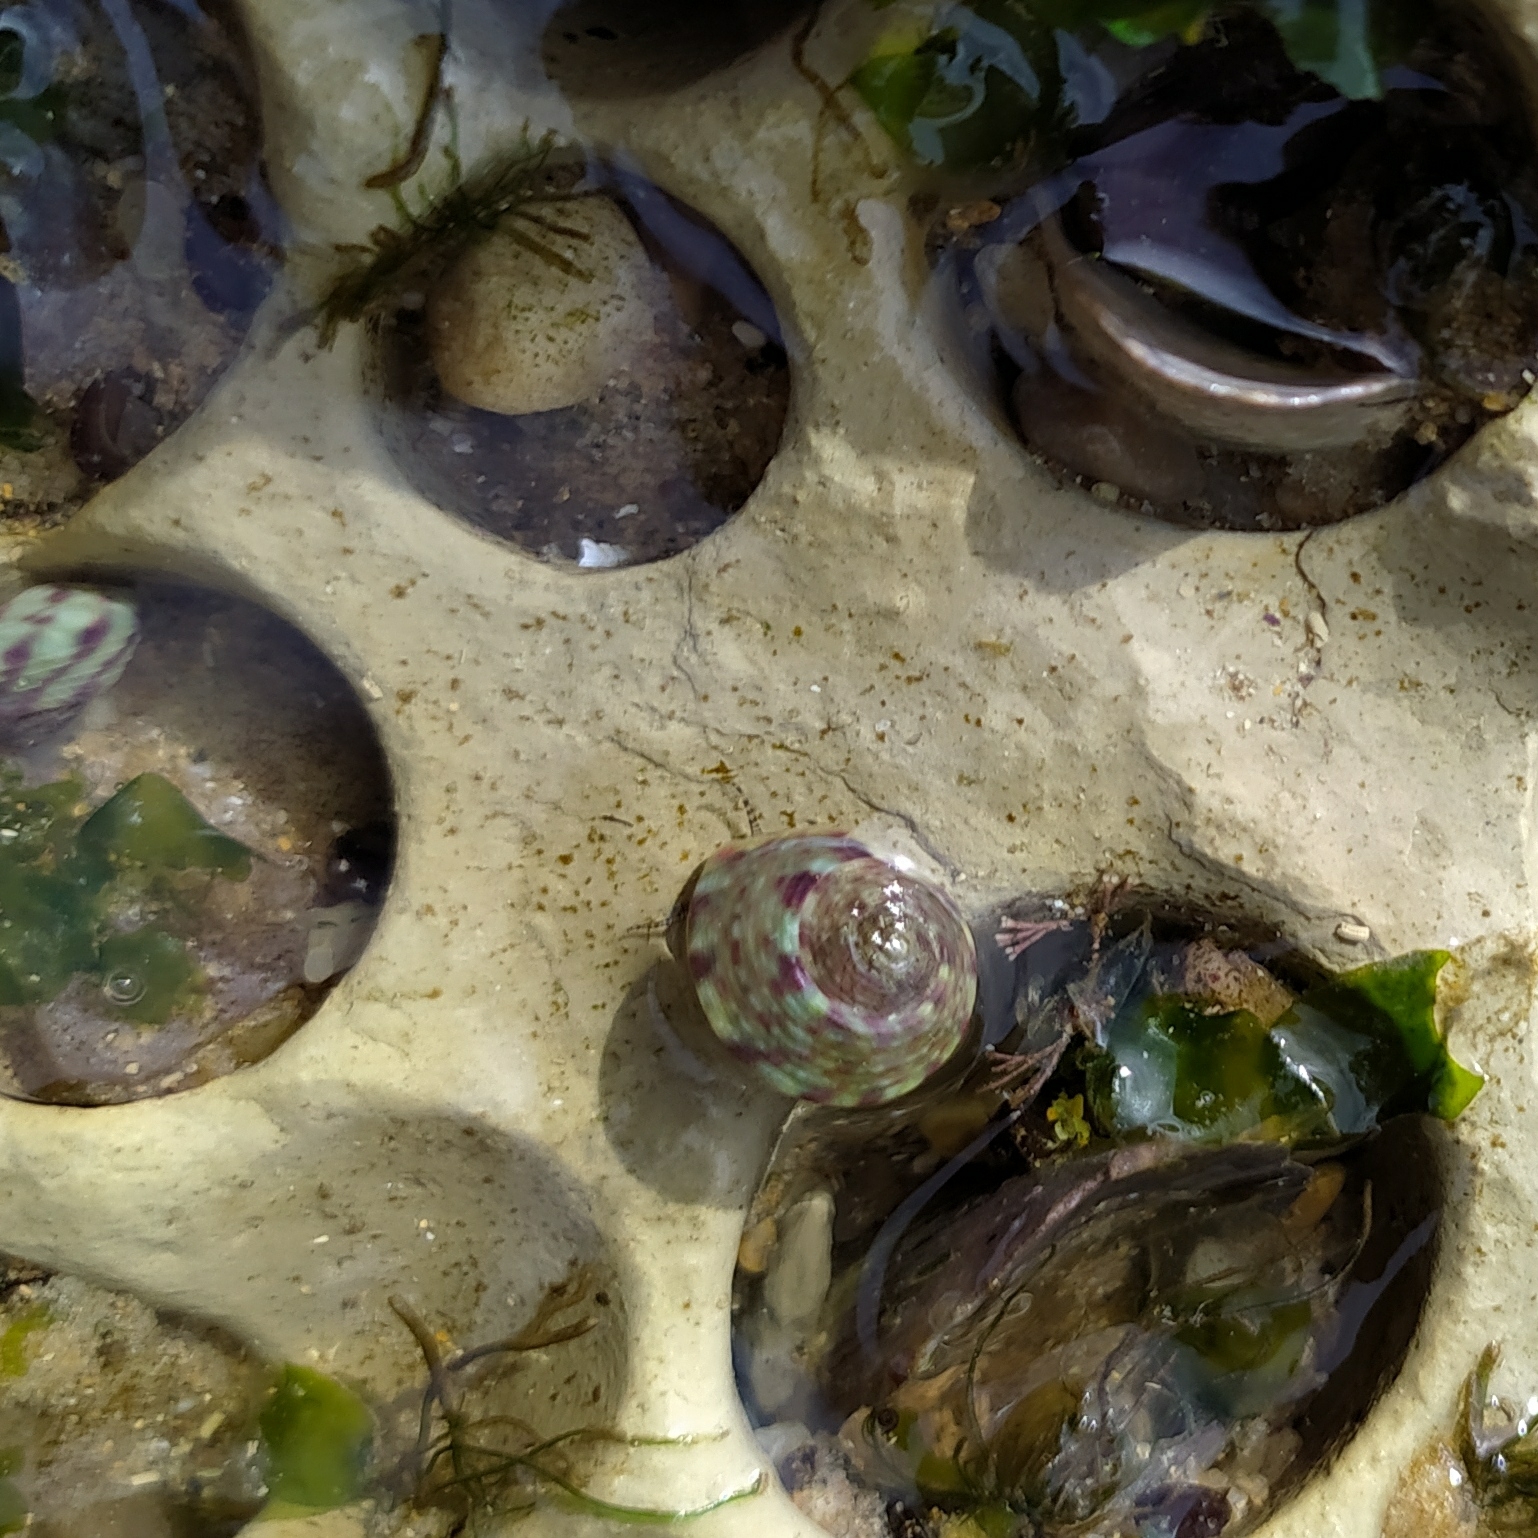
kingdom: Animalia
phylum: Mollusca
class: Gastropoda
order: Trochida
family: Trochidae
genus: Steromphala
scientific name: Steromphala
